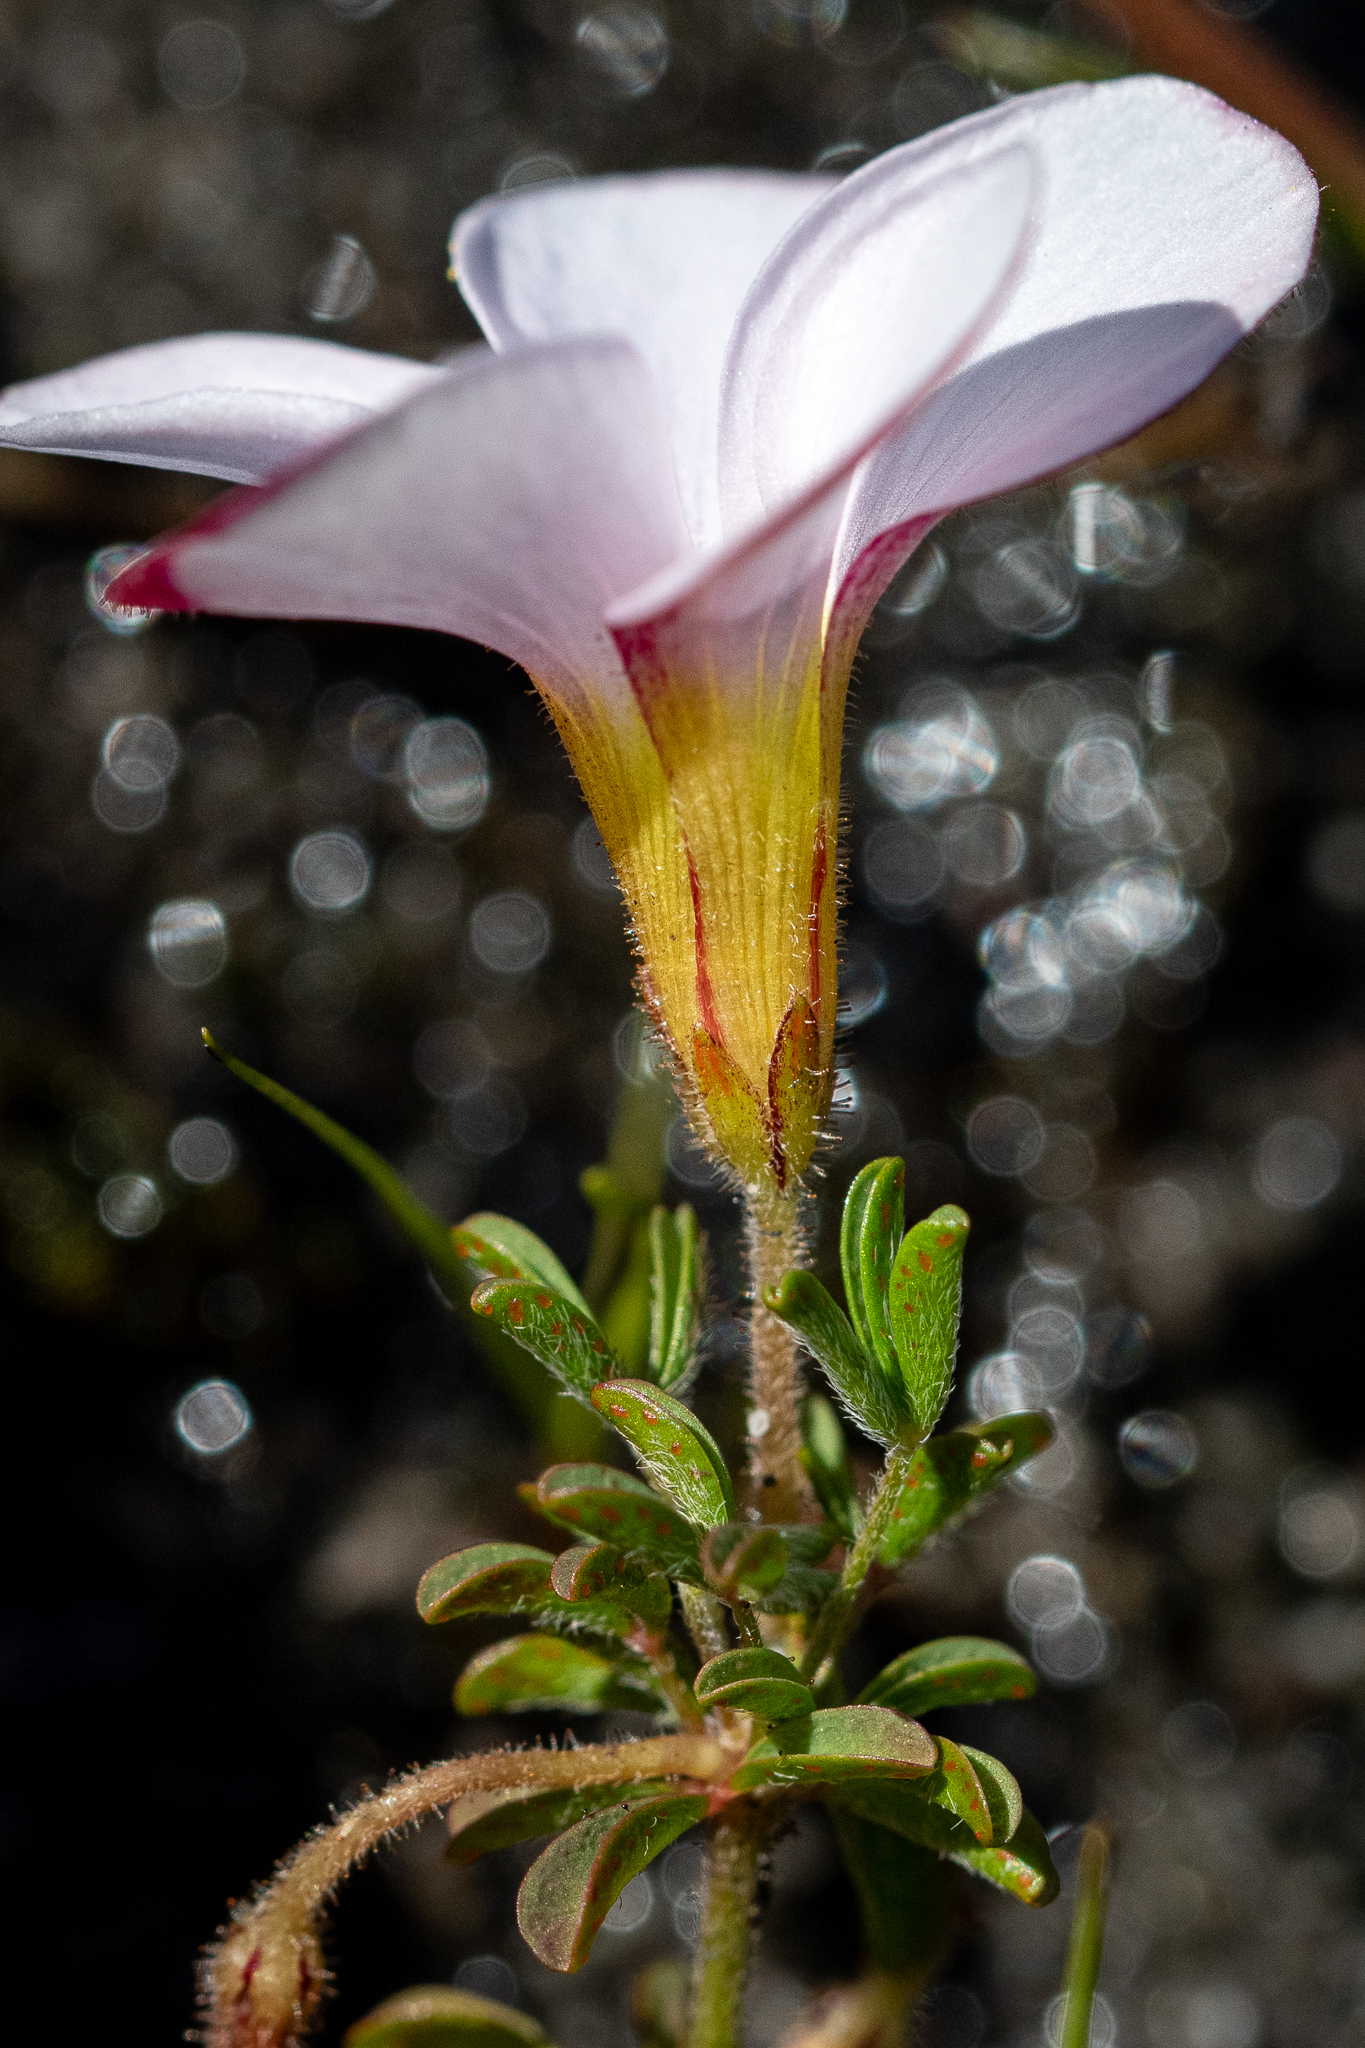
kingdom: Plantae
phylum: Tracheophyta
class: Magnoliopsida
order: Oxalidales
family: Oxalidaceae
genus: Oxalis
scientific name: Oxalis multicaulis
